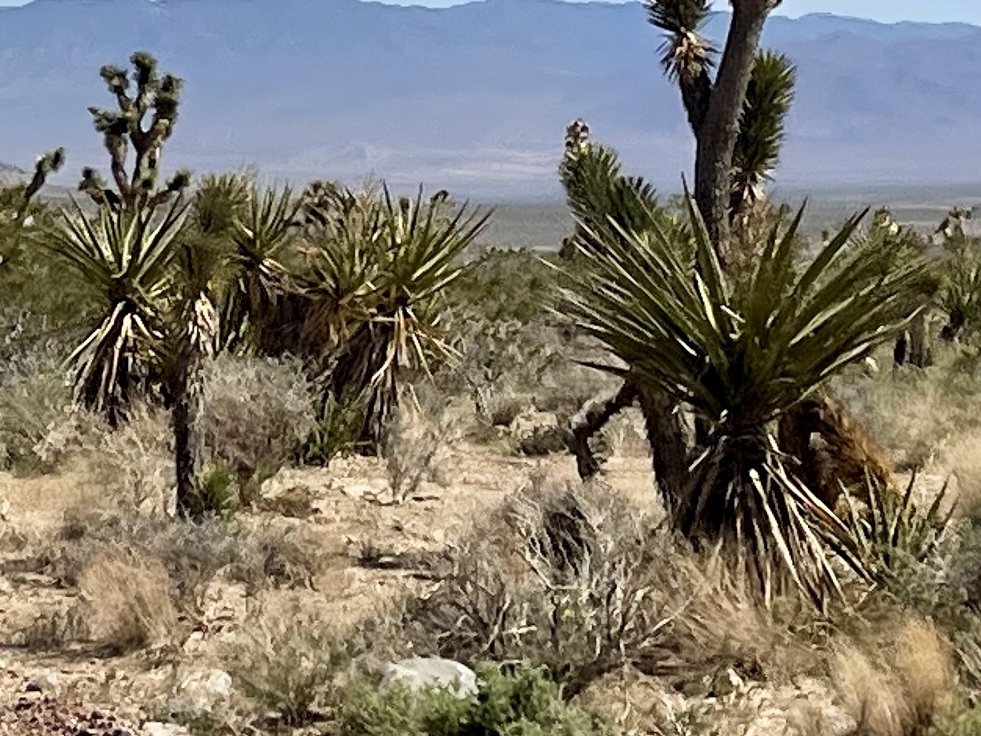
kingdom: Plantae
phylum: Tracheophyta
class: Liliopsida
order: Asparagales
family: Asparagaceae
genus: Yucca
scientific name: Yucca schidigera
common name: Mojave yucca
